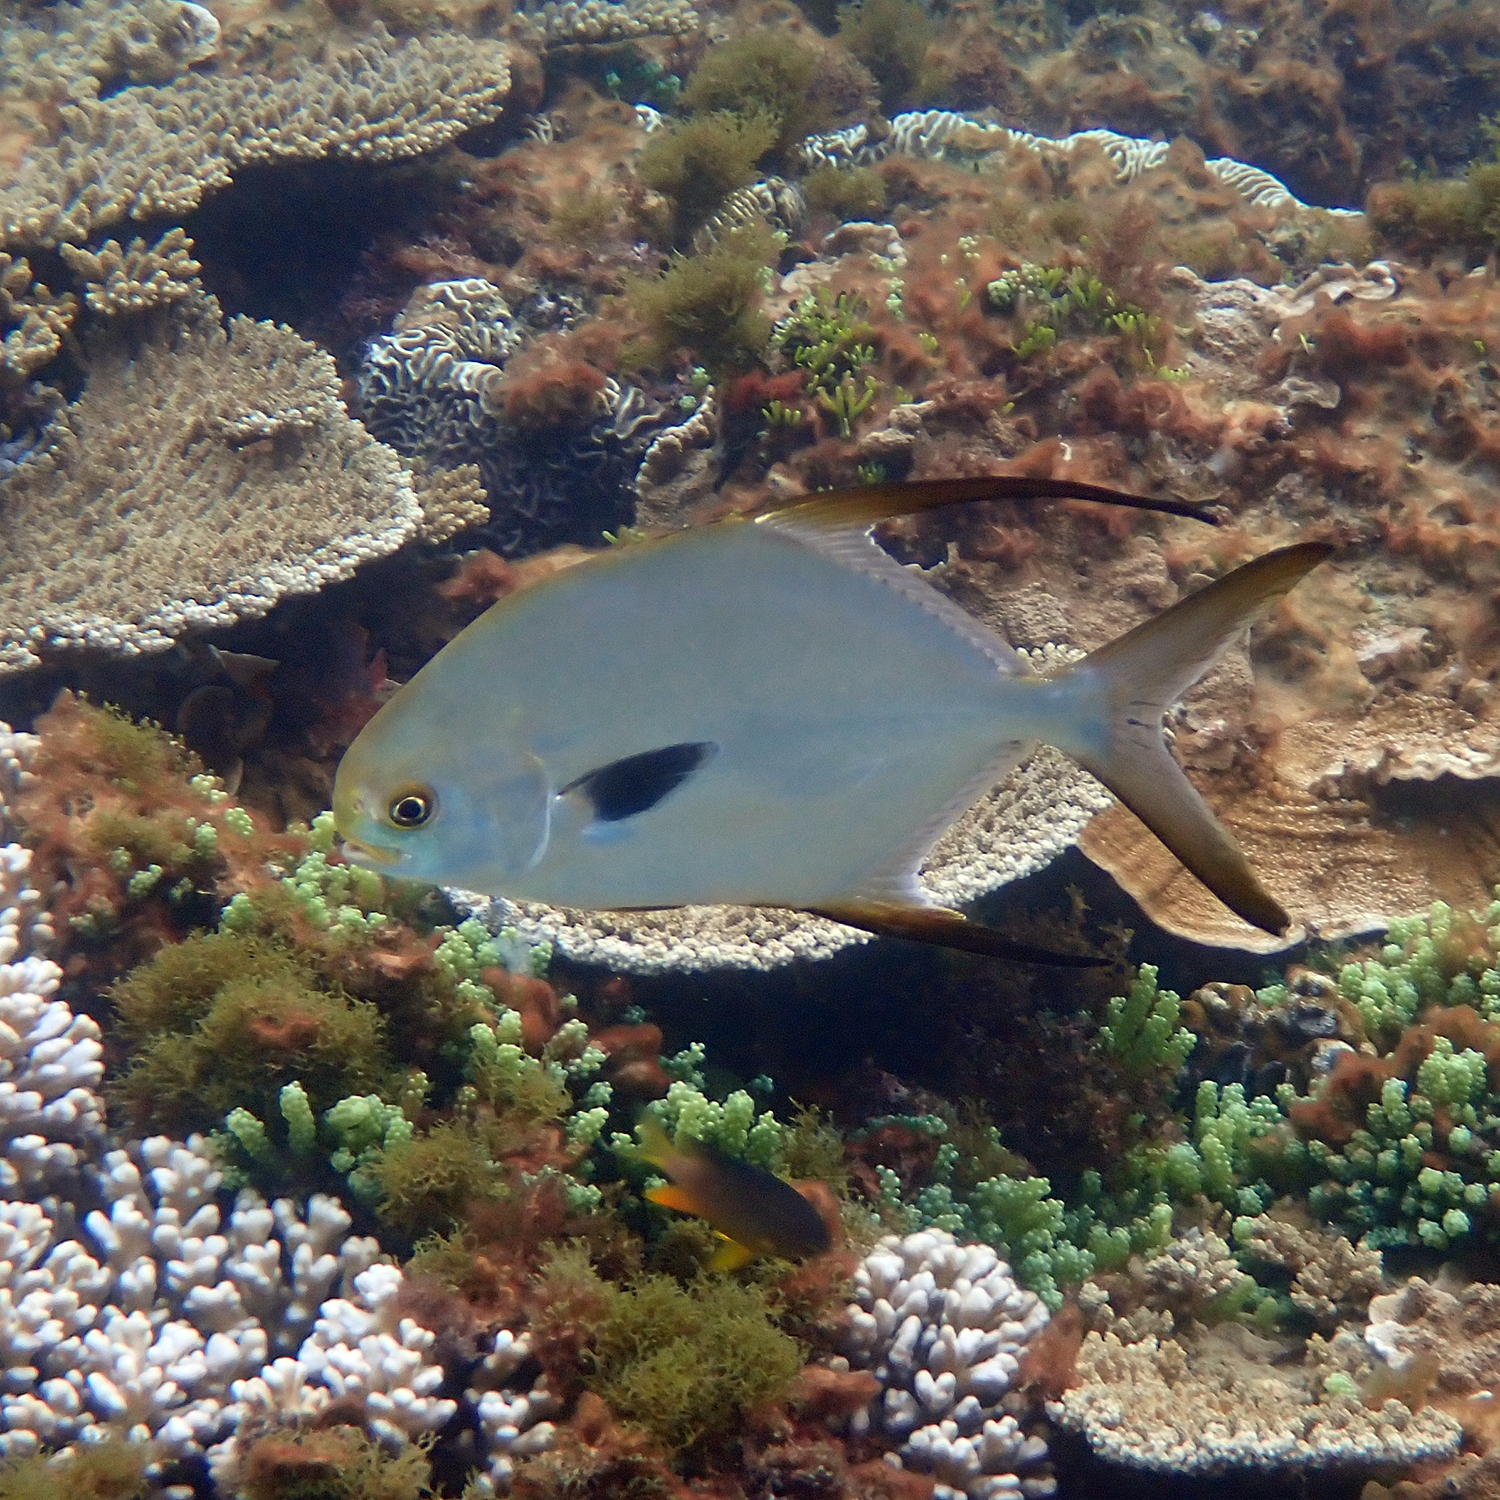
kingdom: Animalia
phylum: Chordata
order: Perciformes
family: Carangidae
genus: Trachinotus
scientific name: Trachinotus blochii
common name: Snubnose pompano
